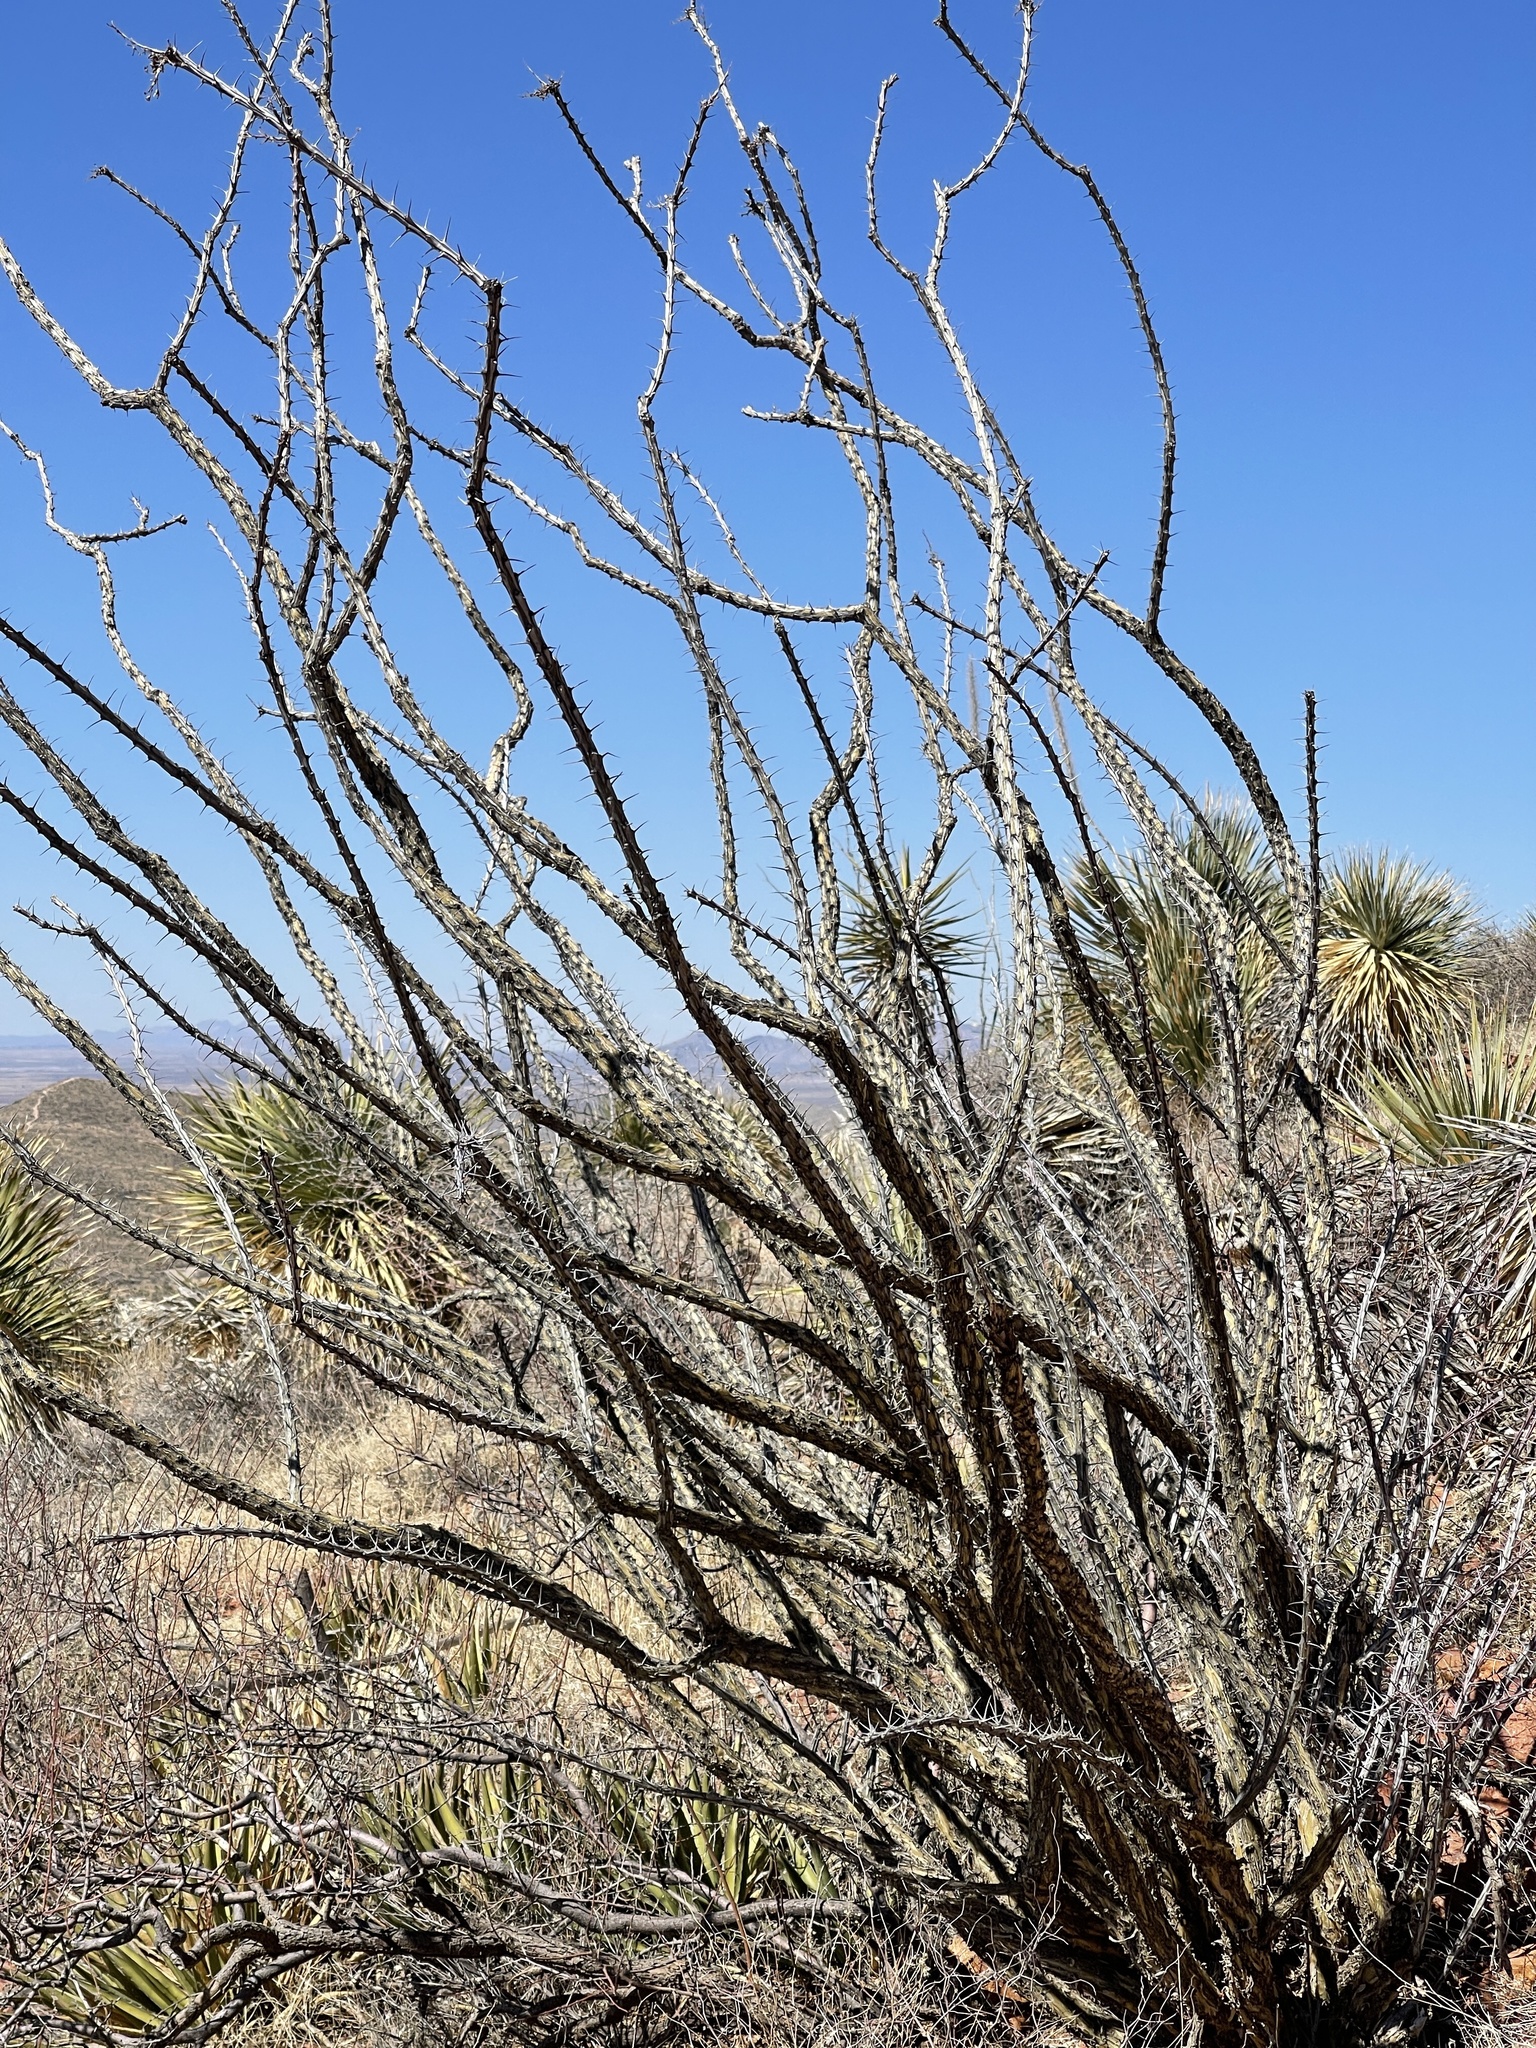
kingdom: Plantae
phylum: Tracheophyta
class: Magnoliopsida
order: Ericales
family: Fouquieriaceae
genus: Fouquieria
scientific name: Fouquieria splendens
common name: Vine-cactus
